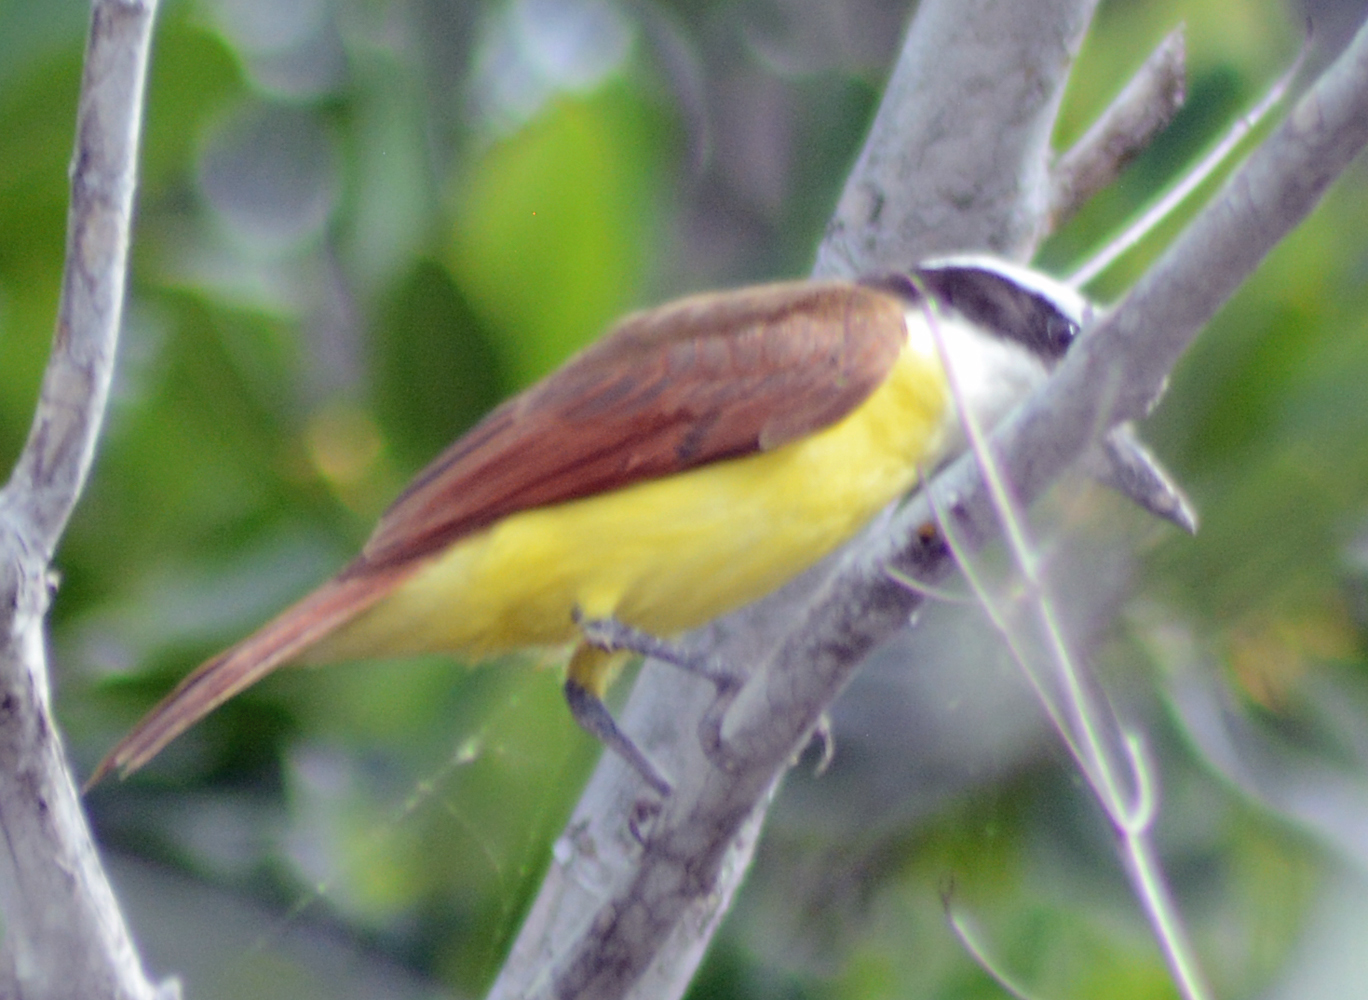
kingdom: Animalia
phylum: Chordata
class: Aves
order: Passeriformes
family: Tyrannidae
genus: Pitangus
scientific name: Pitangus sulphuratus
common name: Great kiskadee
